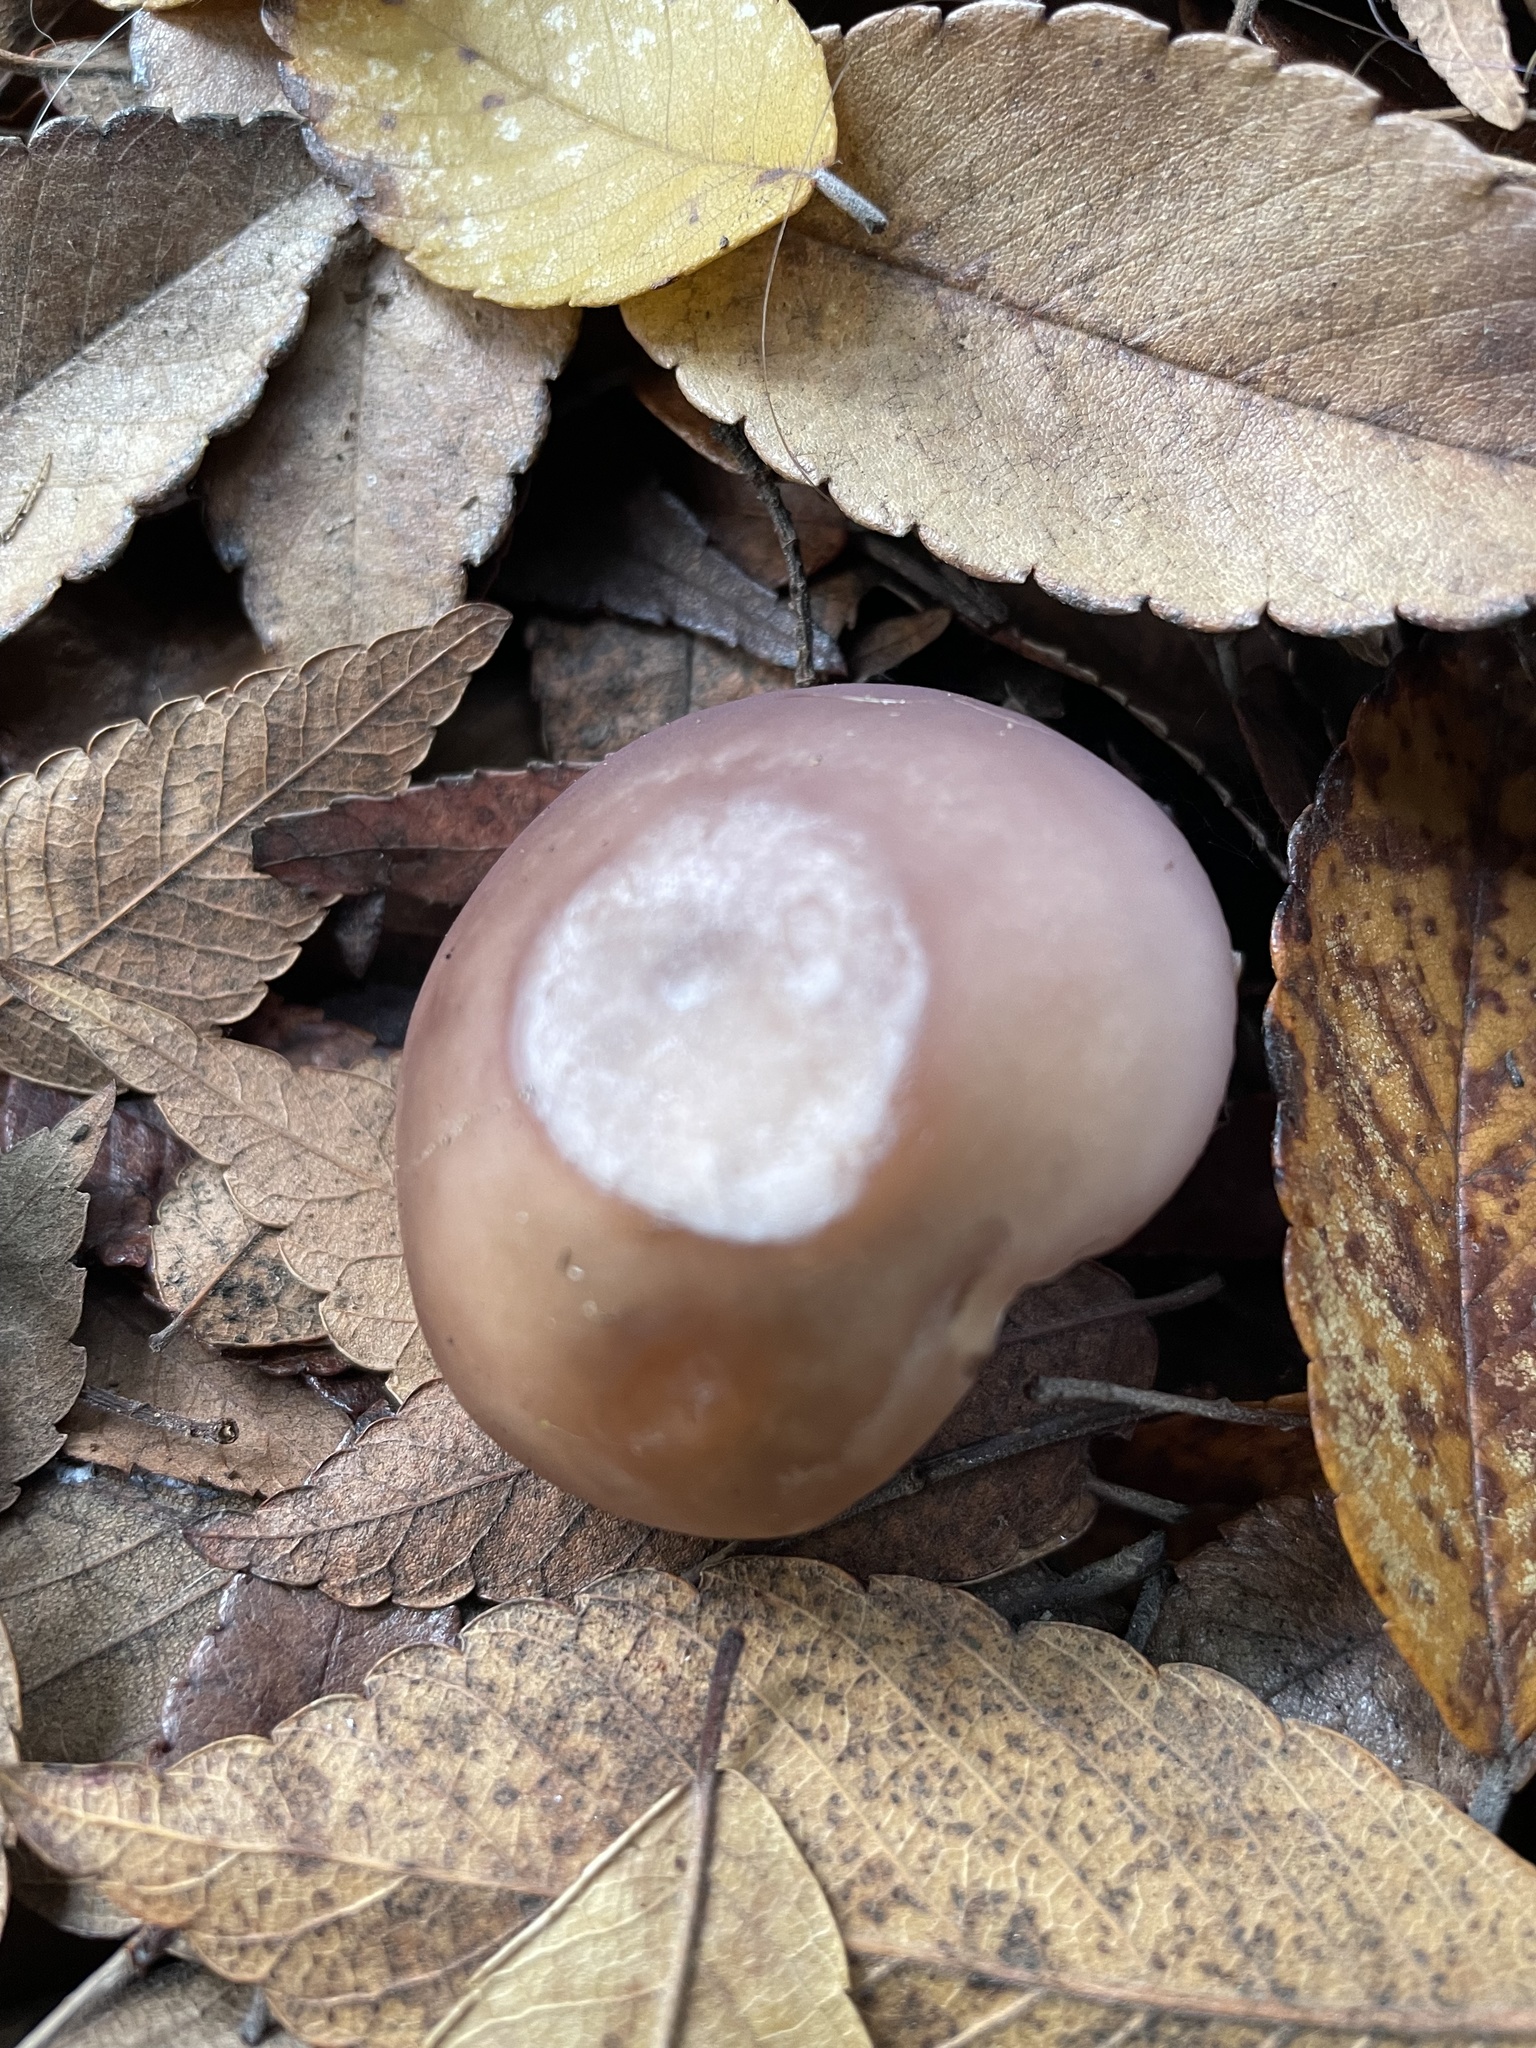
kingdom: Fungi
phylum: Basidiomycota
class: Agaricomycetes
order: Agaricales
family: Tricholomataceae
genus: Collybia
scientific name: Collybia
